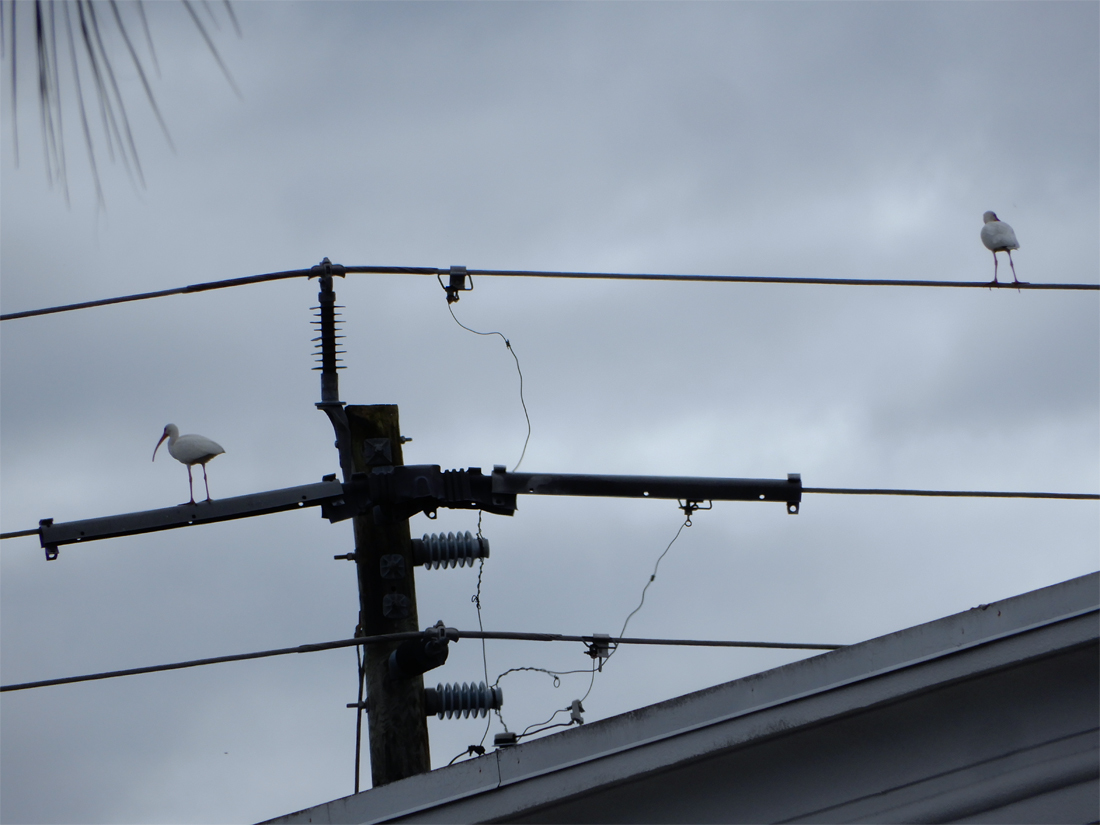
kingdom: Animalia
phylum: Chordata
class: Aves
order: Pelecaniformes
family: Threskiornithidae
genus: Eudocimus
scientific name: Eudocimus albus
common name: White ibis
